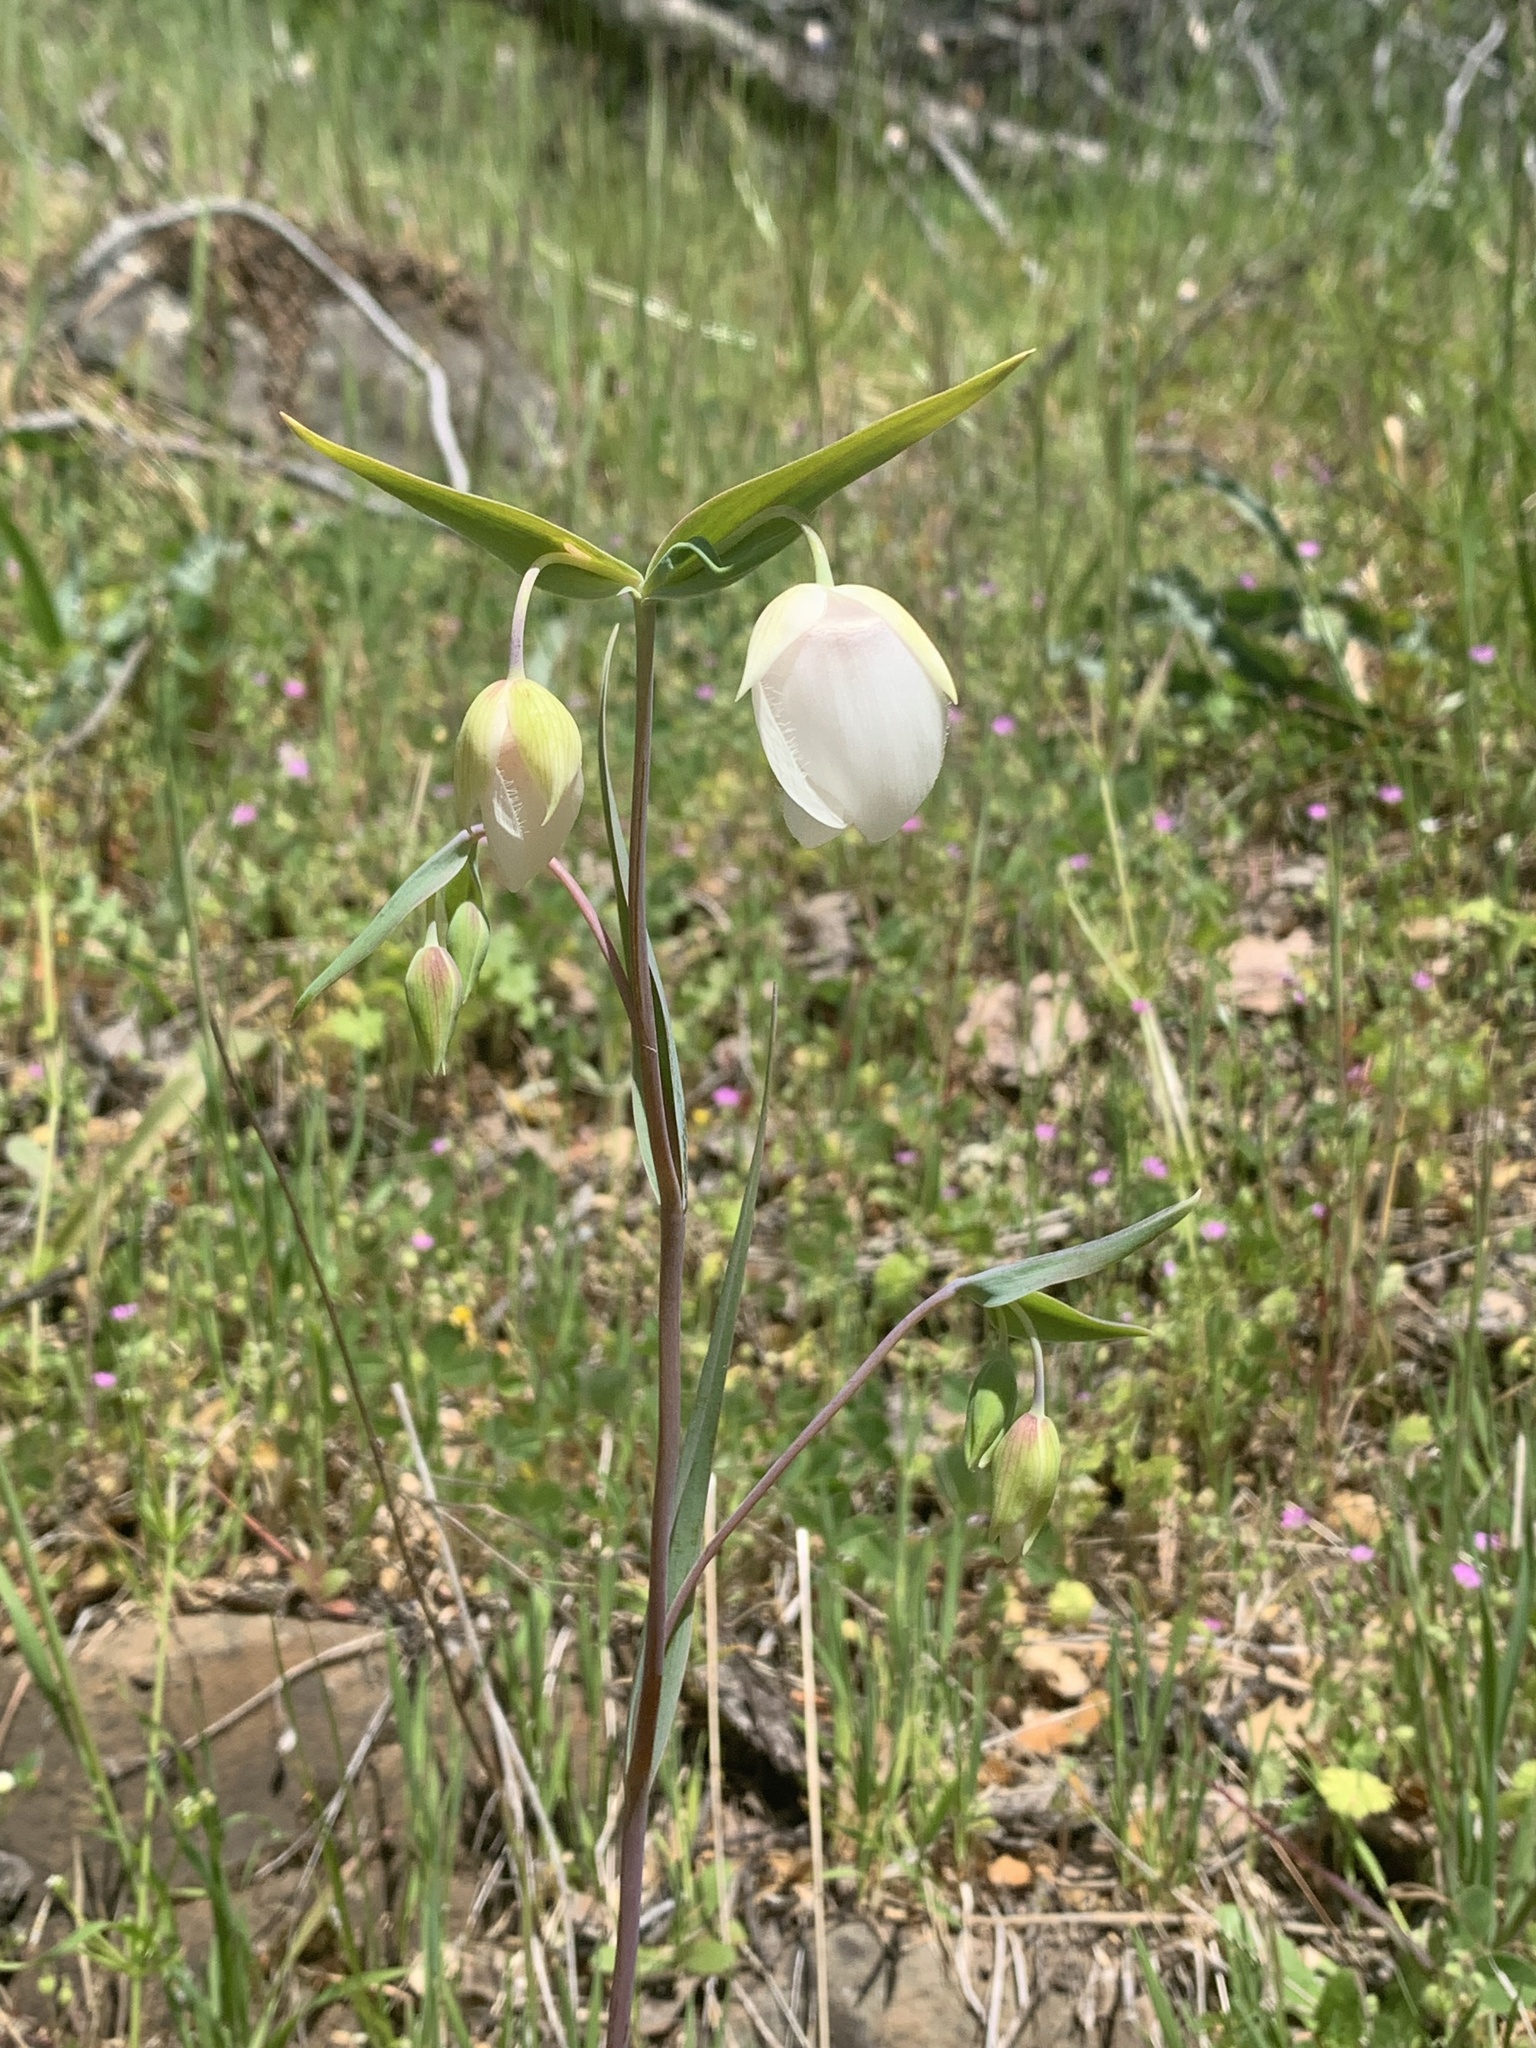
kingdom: Plantae
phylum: Tracheophyta
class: Liliopsida
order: Liliales
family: Liliaceae
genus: Calochortus
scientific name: Calochortus albus
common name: Fairy-lantern
